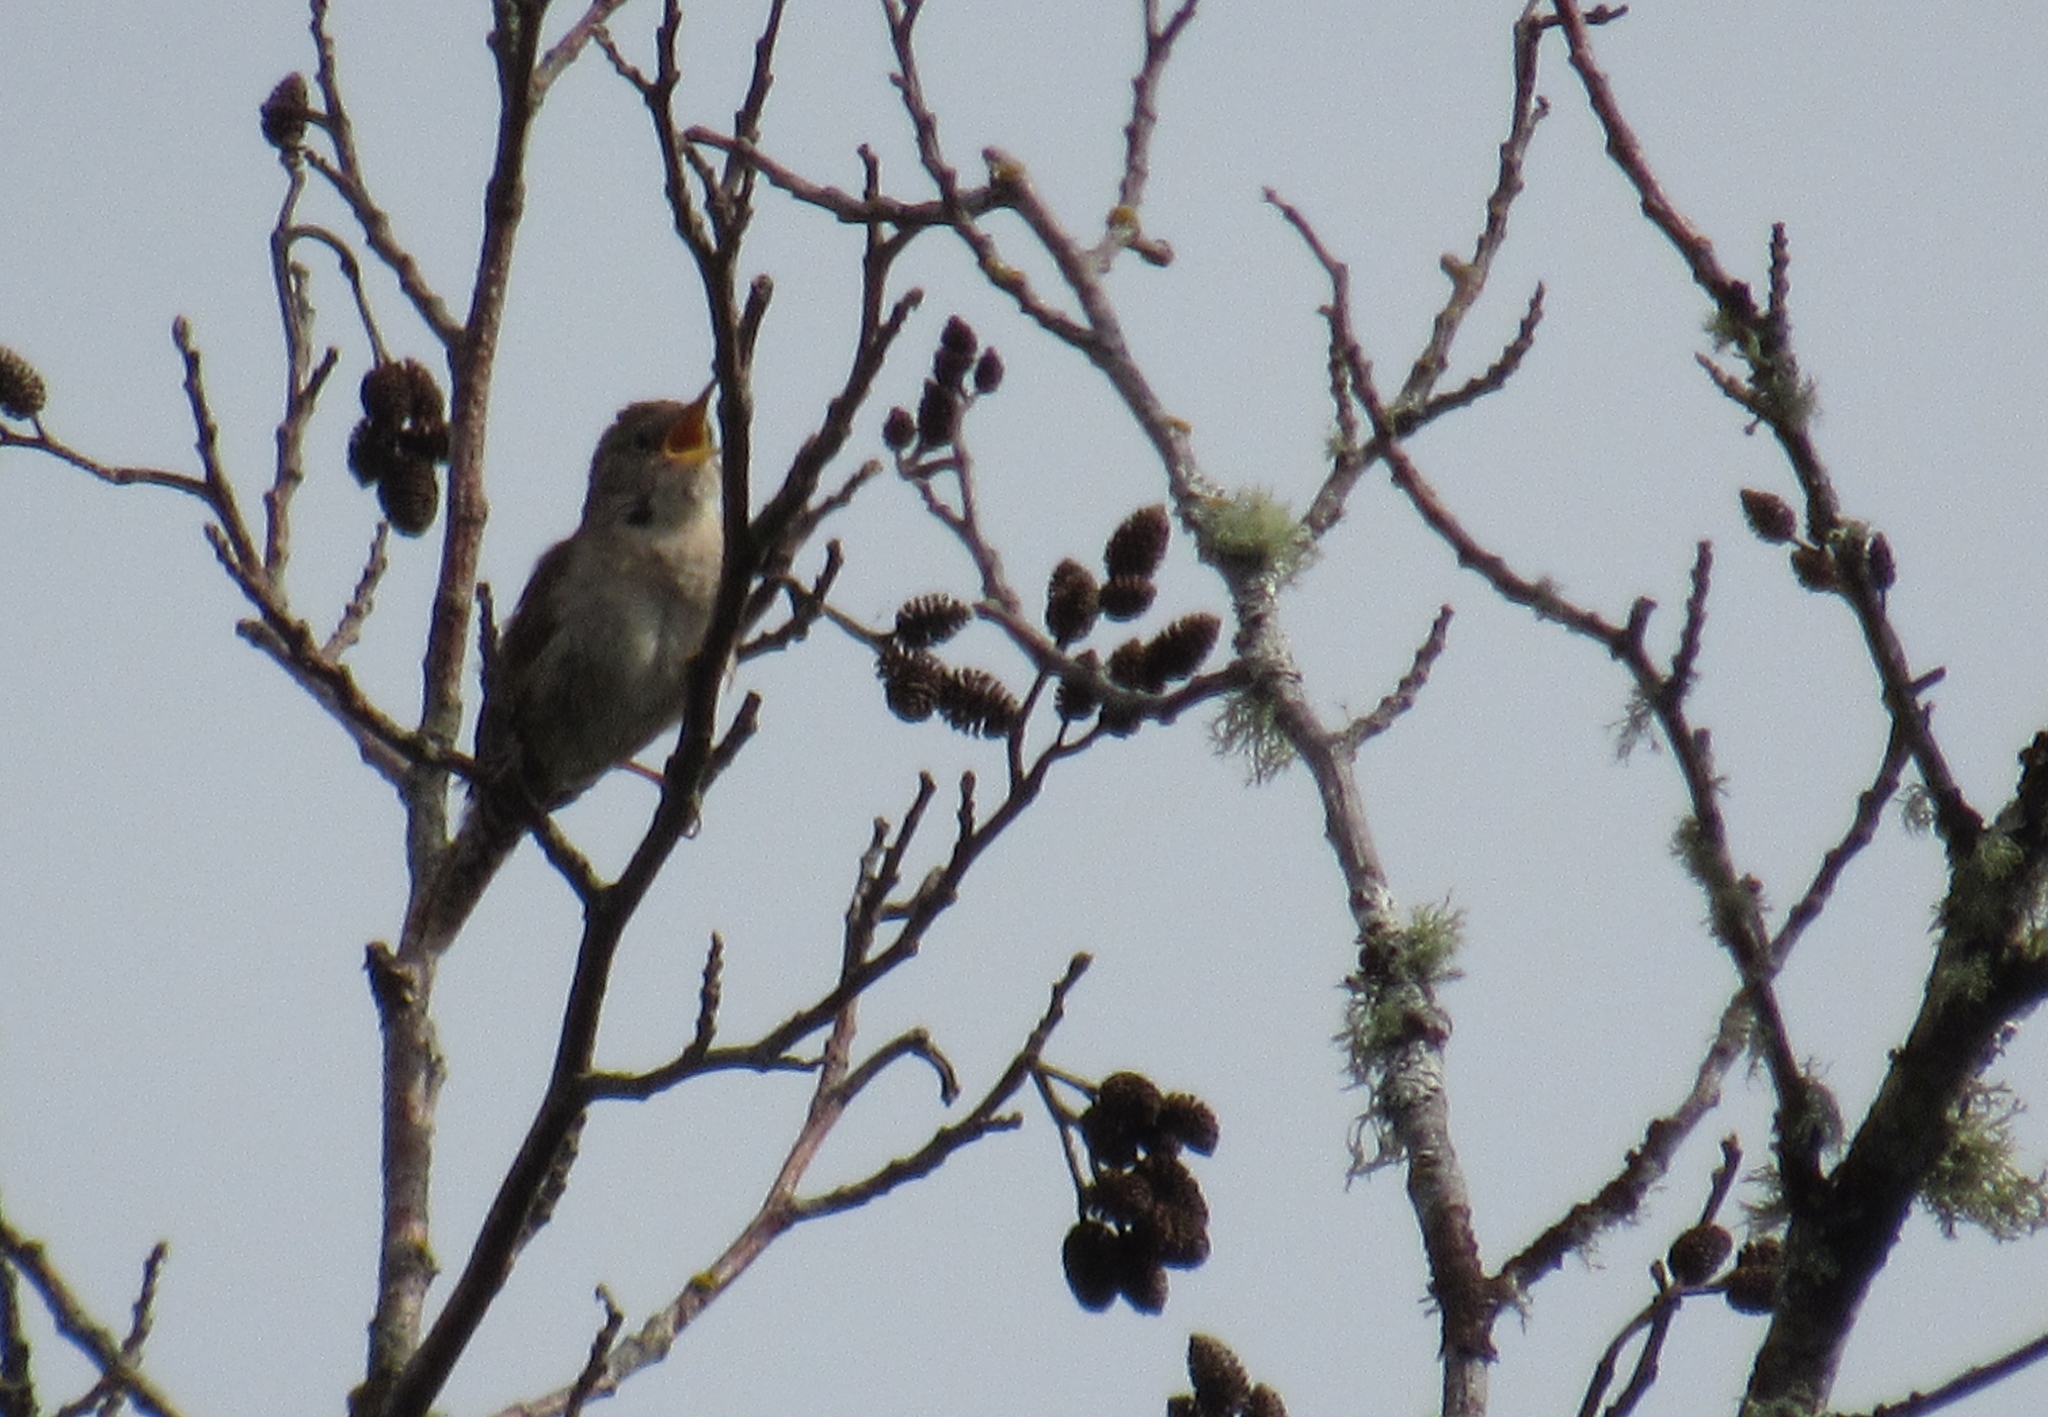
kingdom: Animalia
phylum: Chordata
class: Aves
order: Passeriformes
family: Troglodytidae
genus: Troglodytes
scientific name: Troglodytes aedon
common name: House wren
